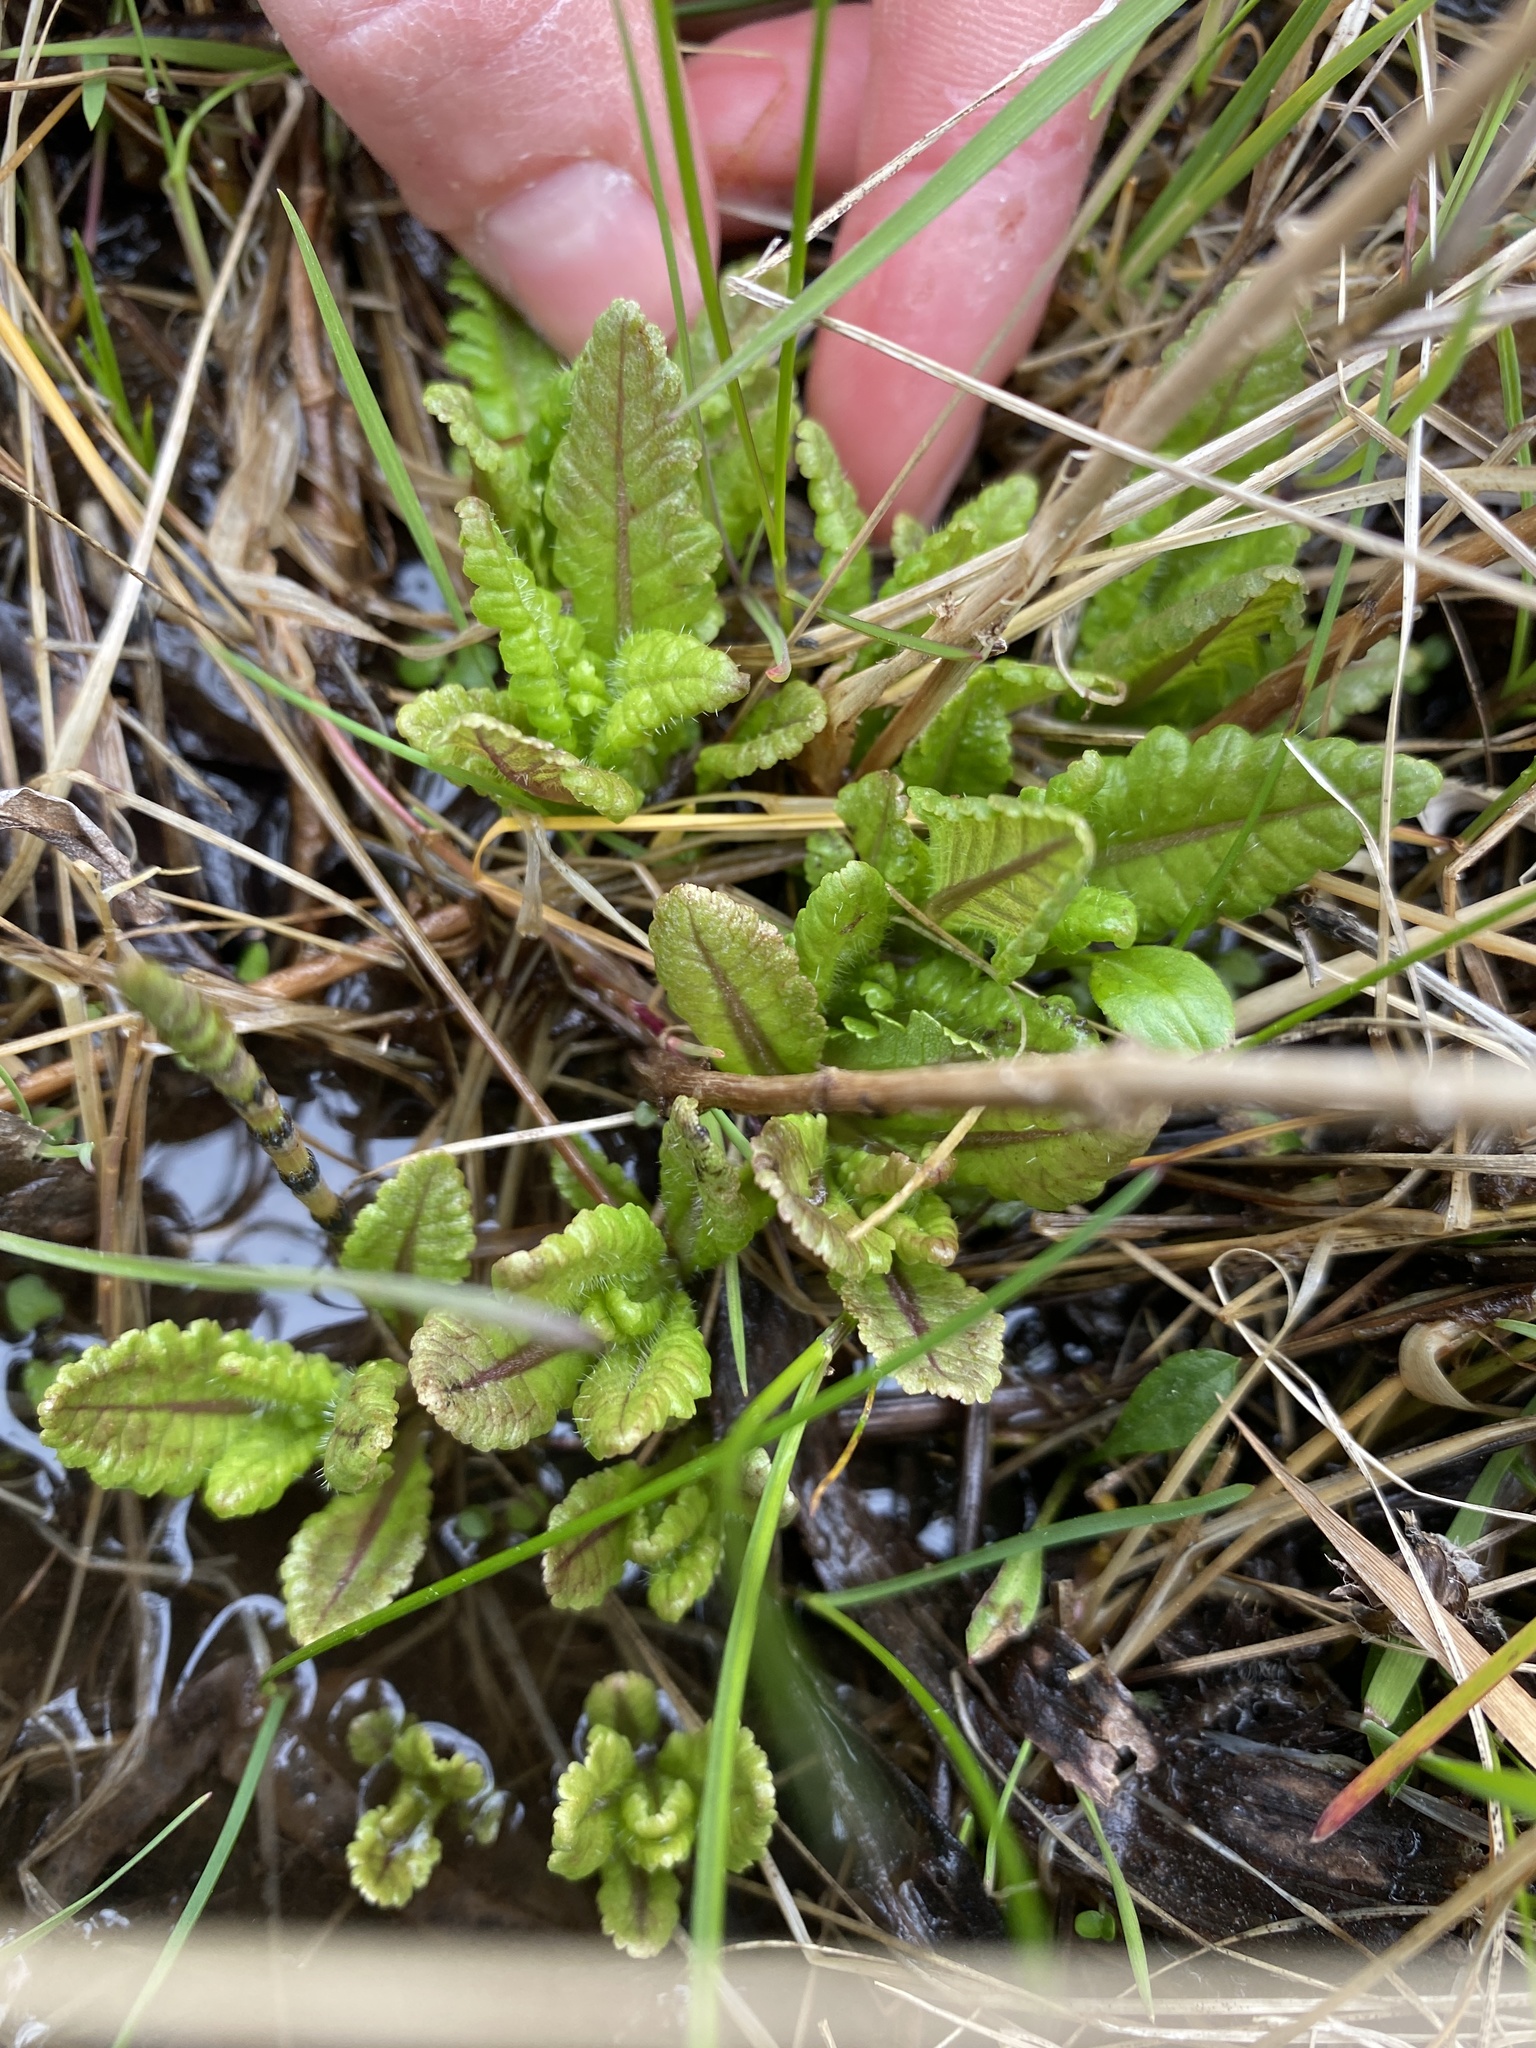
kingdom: Plantae
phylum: Tracheophyta
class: Magnoliopsida
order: Lamiales
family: Orobanchaceae
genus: Pedicularis
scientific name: Pedicularis lanceolata
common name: Swamp lousewort
